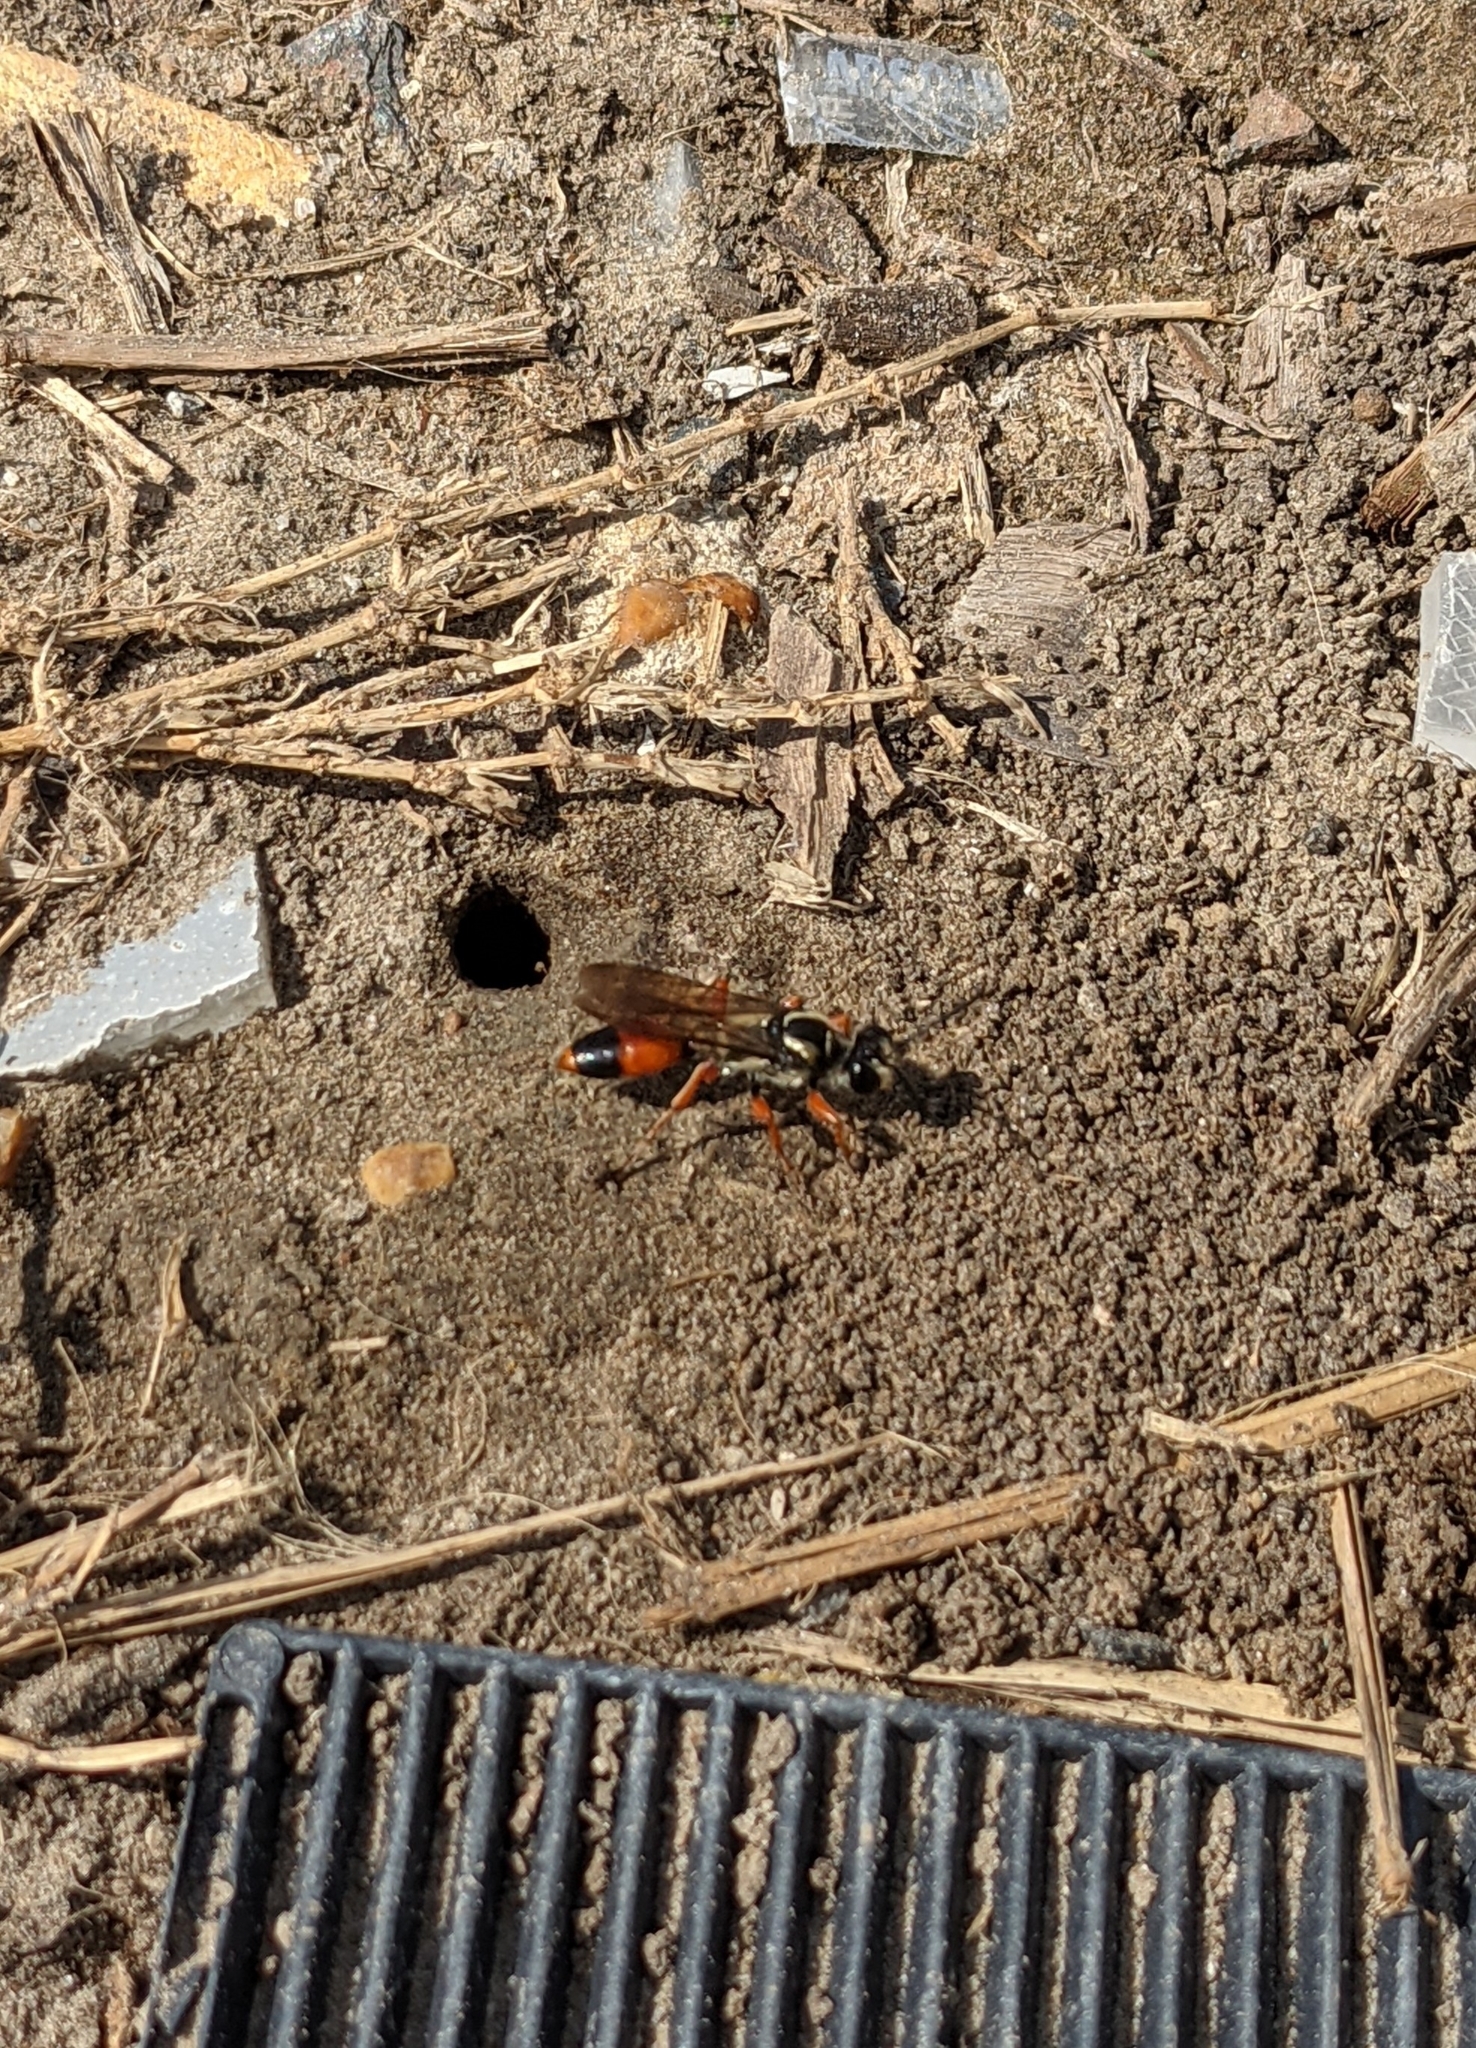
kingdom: Animalia
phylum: Arthropoda
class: Insecta
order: Hymenoptera
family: Sphecidae
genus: Sphex
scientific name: Sphex dorsalis
